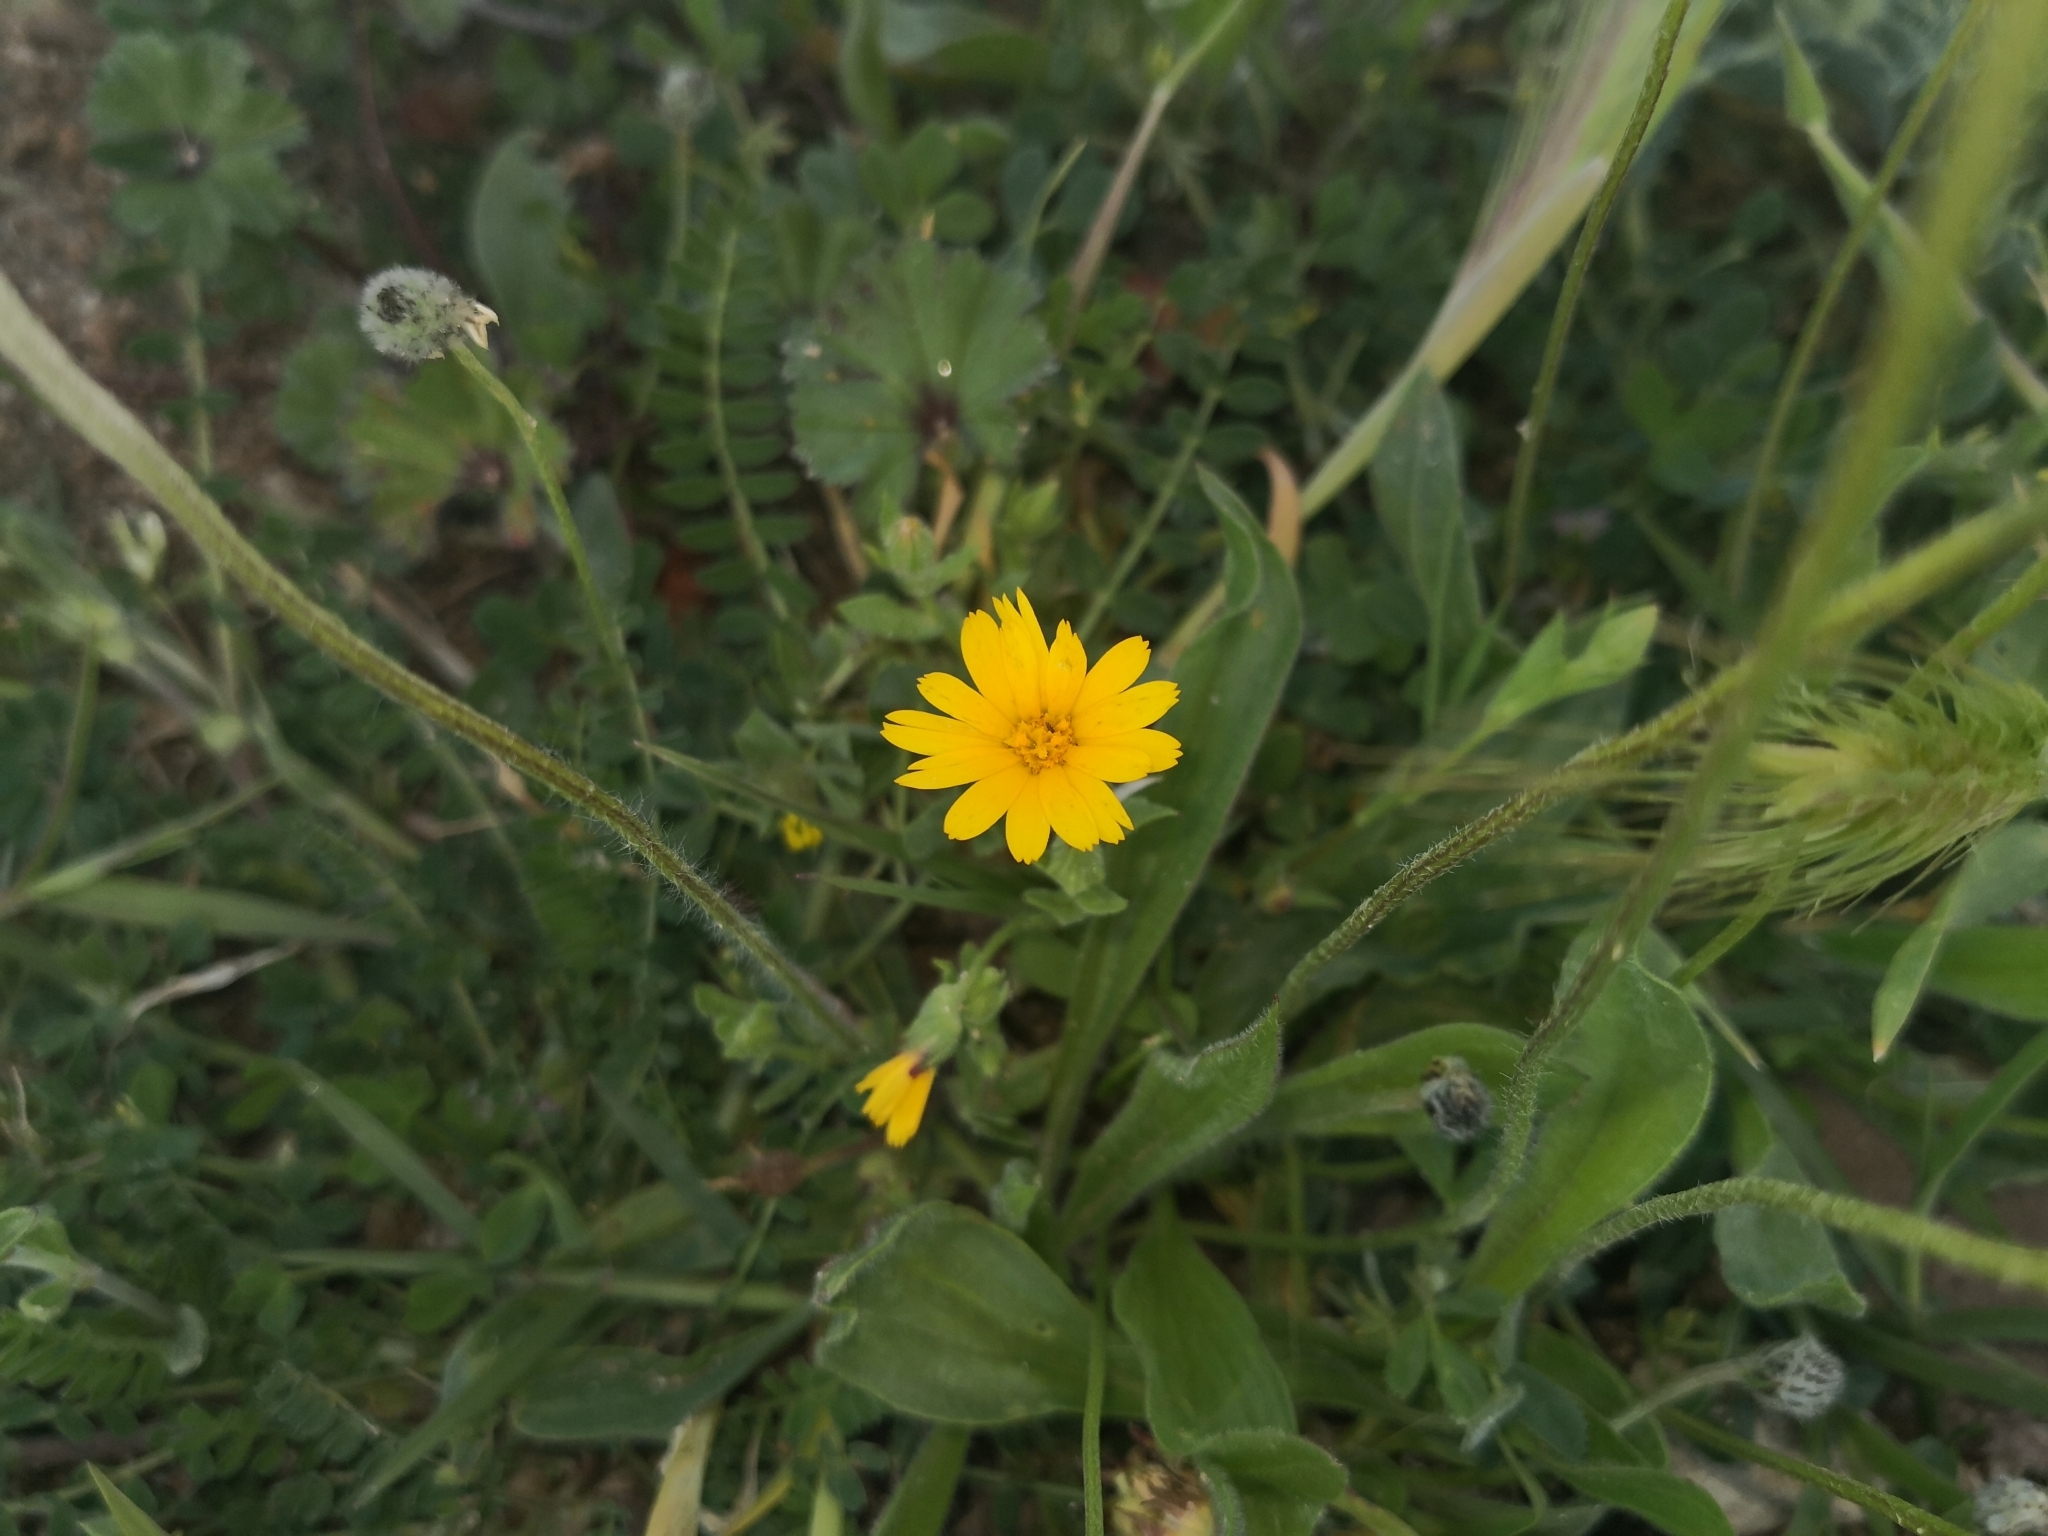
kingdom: Plantae
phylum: Tracheophyta
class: Magnoliopsida
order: Asterales
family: Asteraceae
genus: Calendula
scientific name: Calendula arvensis
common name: Field marigold
